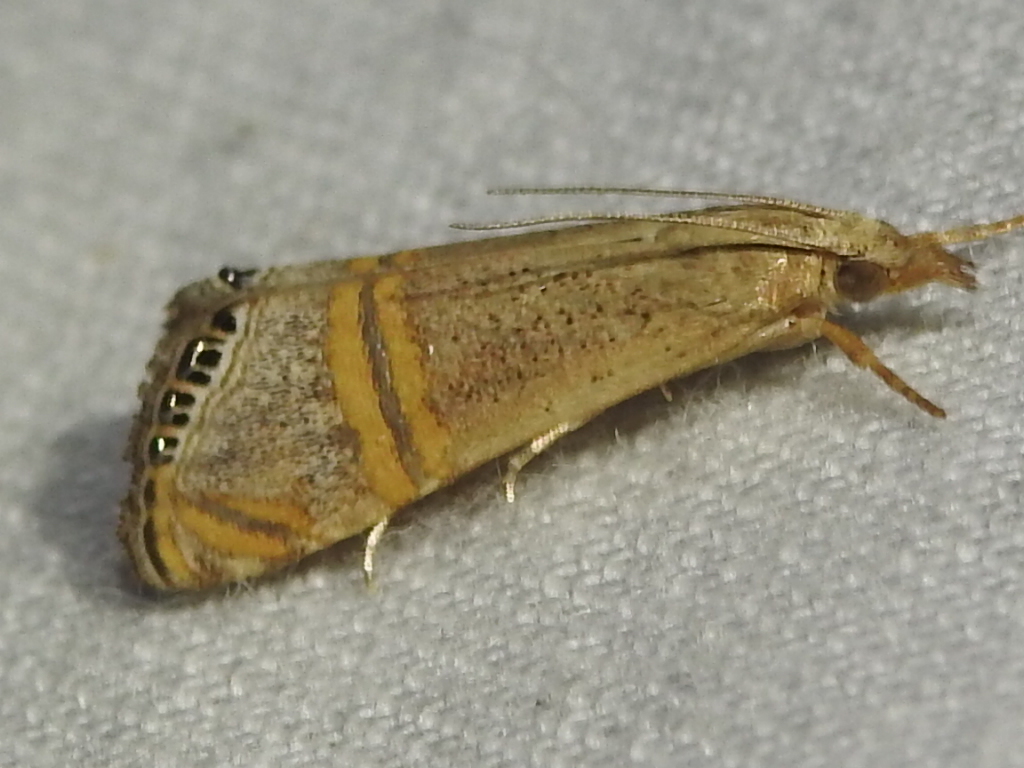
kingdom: Animalia
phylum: Arthropoda
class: Insecta
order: Lepidoptera
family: Crambidae
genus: Euchromius
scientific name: Euchromius ocellea
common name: Necklace veneer moth
